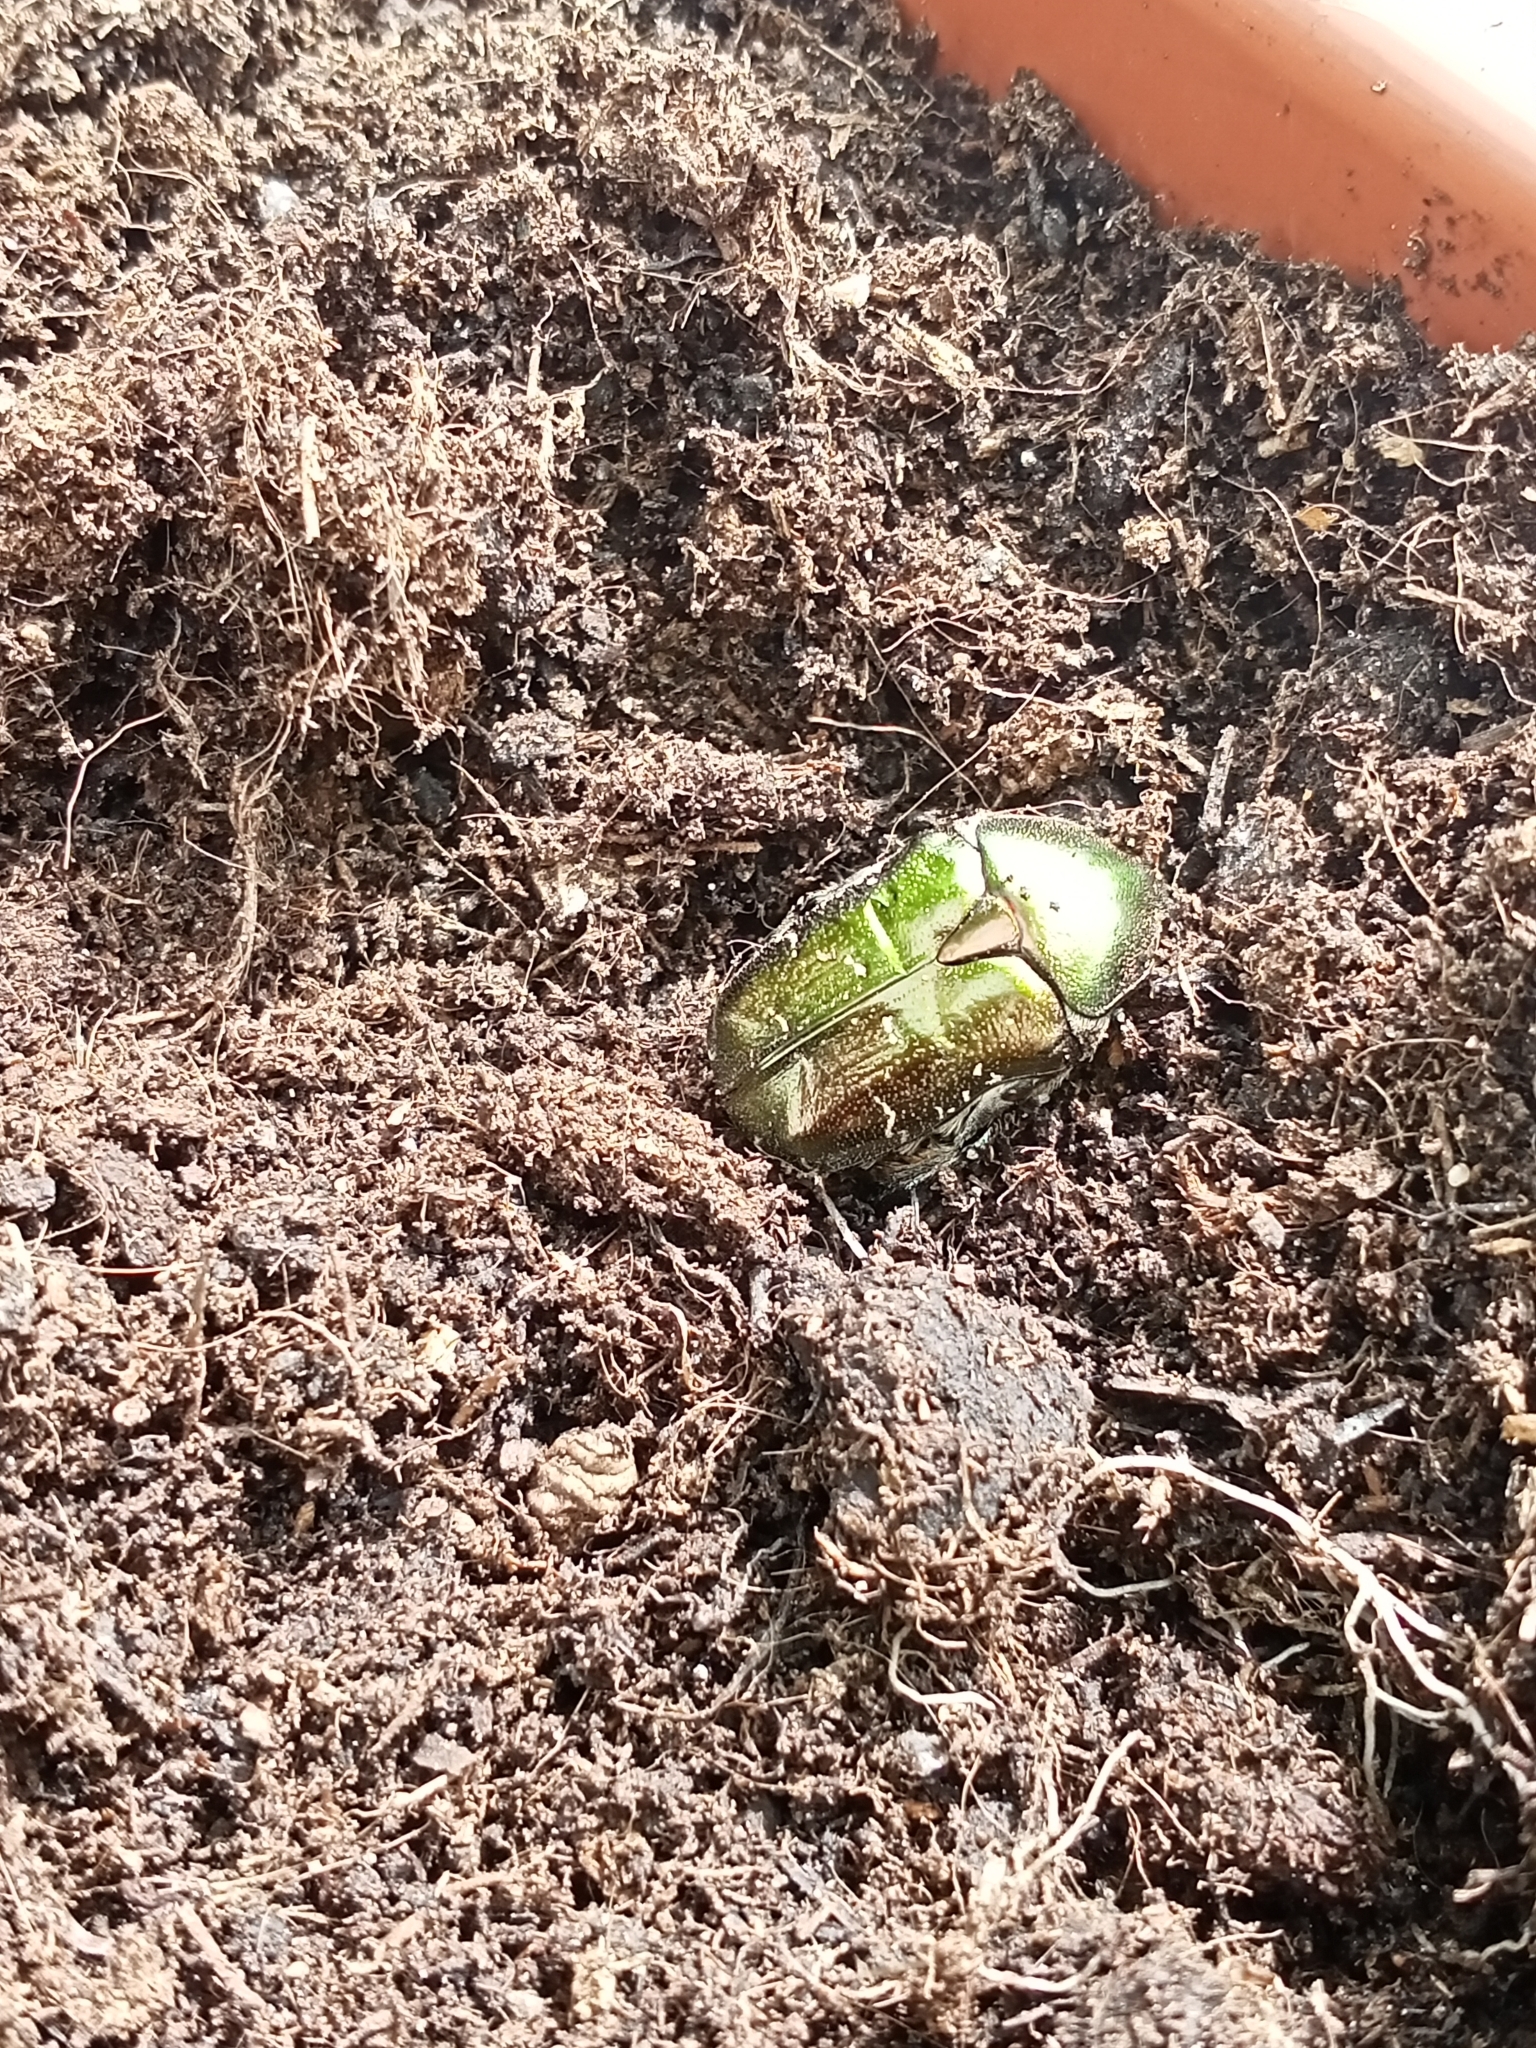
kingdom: Animalia
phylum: Arthropoda
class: Insecta
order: Coleoptera
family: Scarabaeidae
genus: Cetonia
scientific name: Cetonia aurata
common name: Rose chafer
